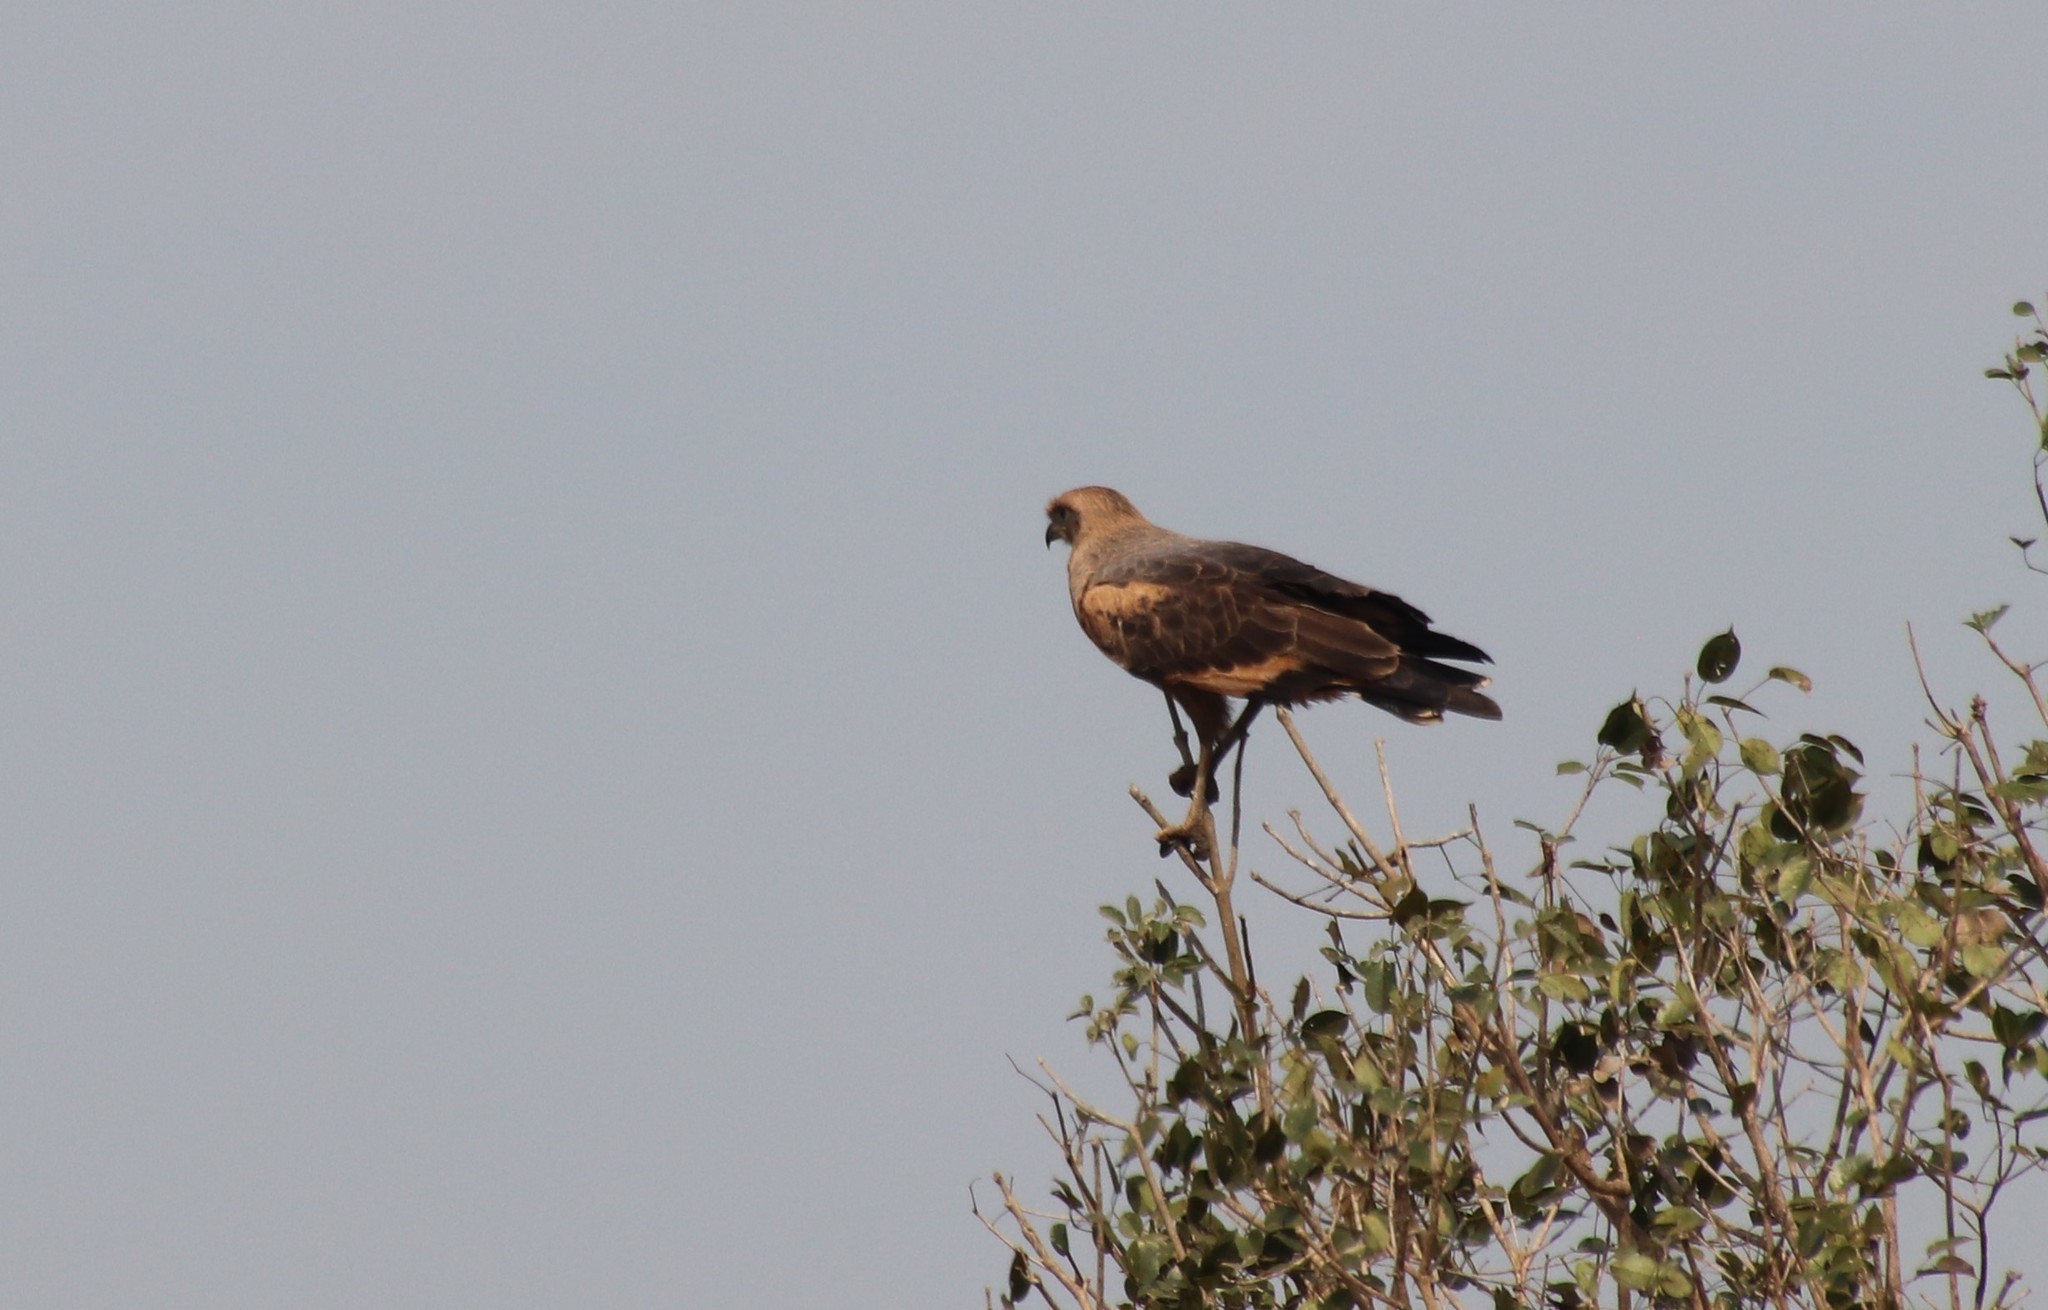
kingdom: Animalia
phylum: Chordata
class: Aves
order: Accipitriformes
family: Accipitridae
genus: Buteogallus
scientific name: Buteogallus meridionalis
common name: Savanna hawk
